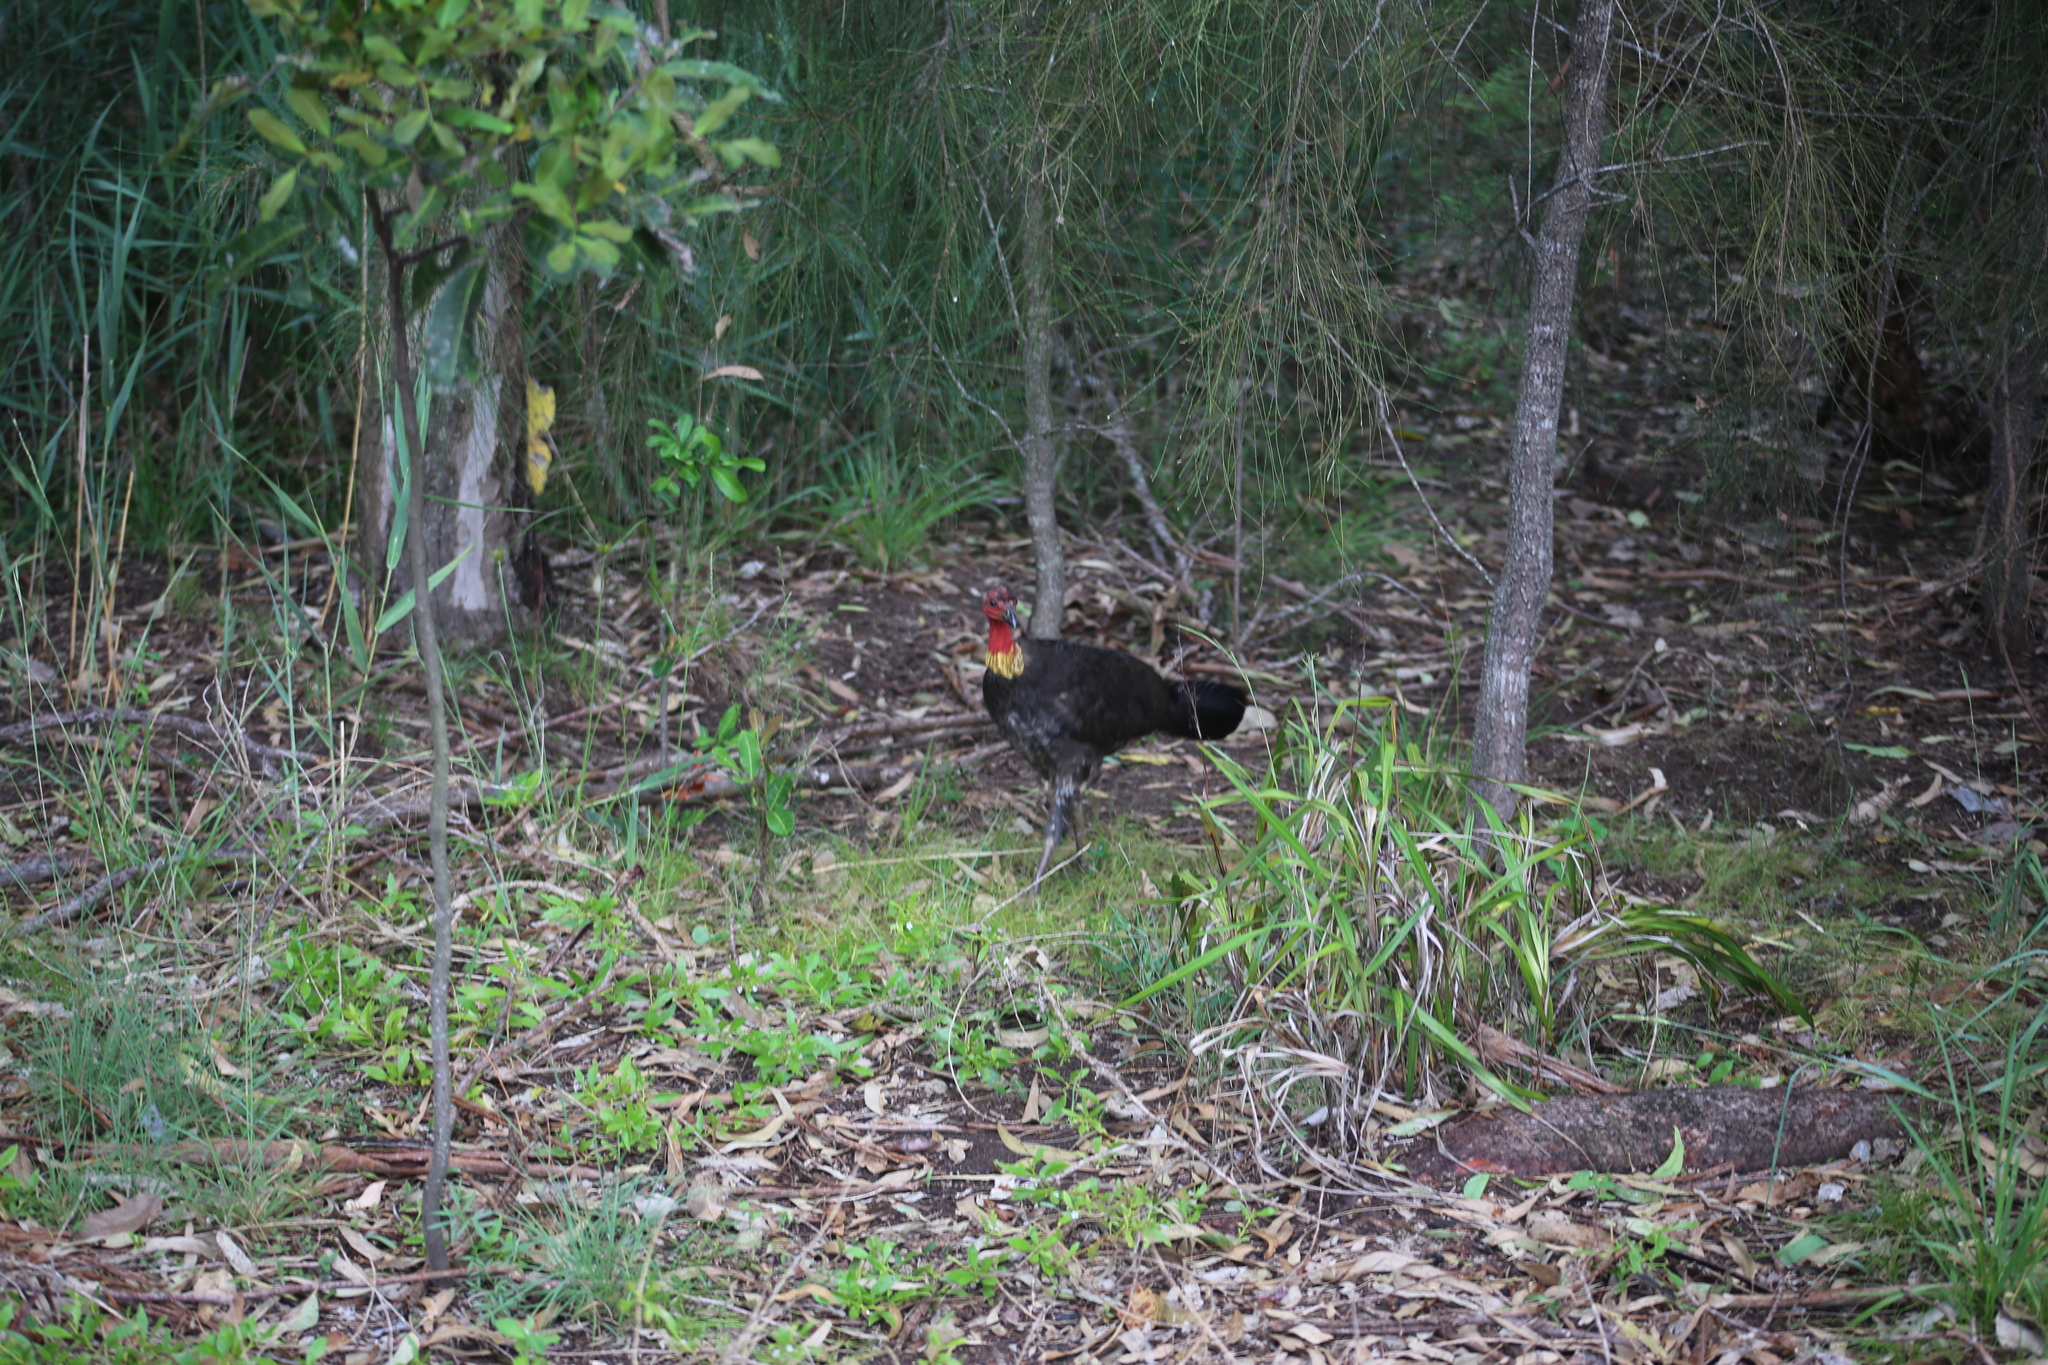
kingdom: Animalia
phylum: Chordata
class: Aves
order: Galliformes
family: Megapodiidae
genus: Alectura
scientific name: Alectura lathami
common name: Australian brushturkey
